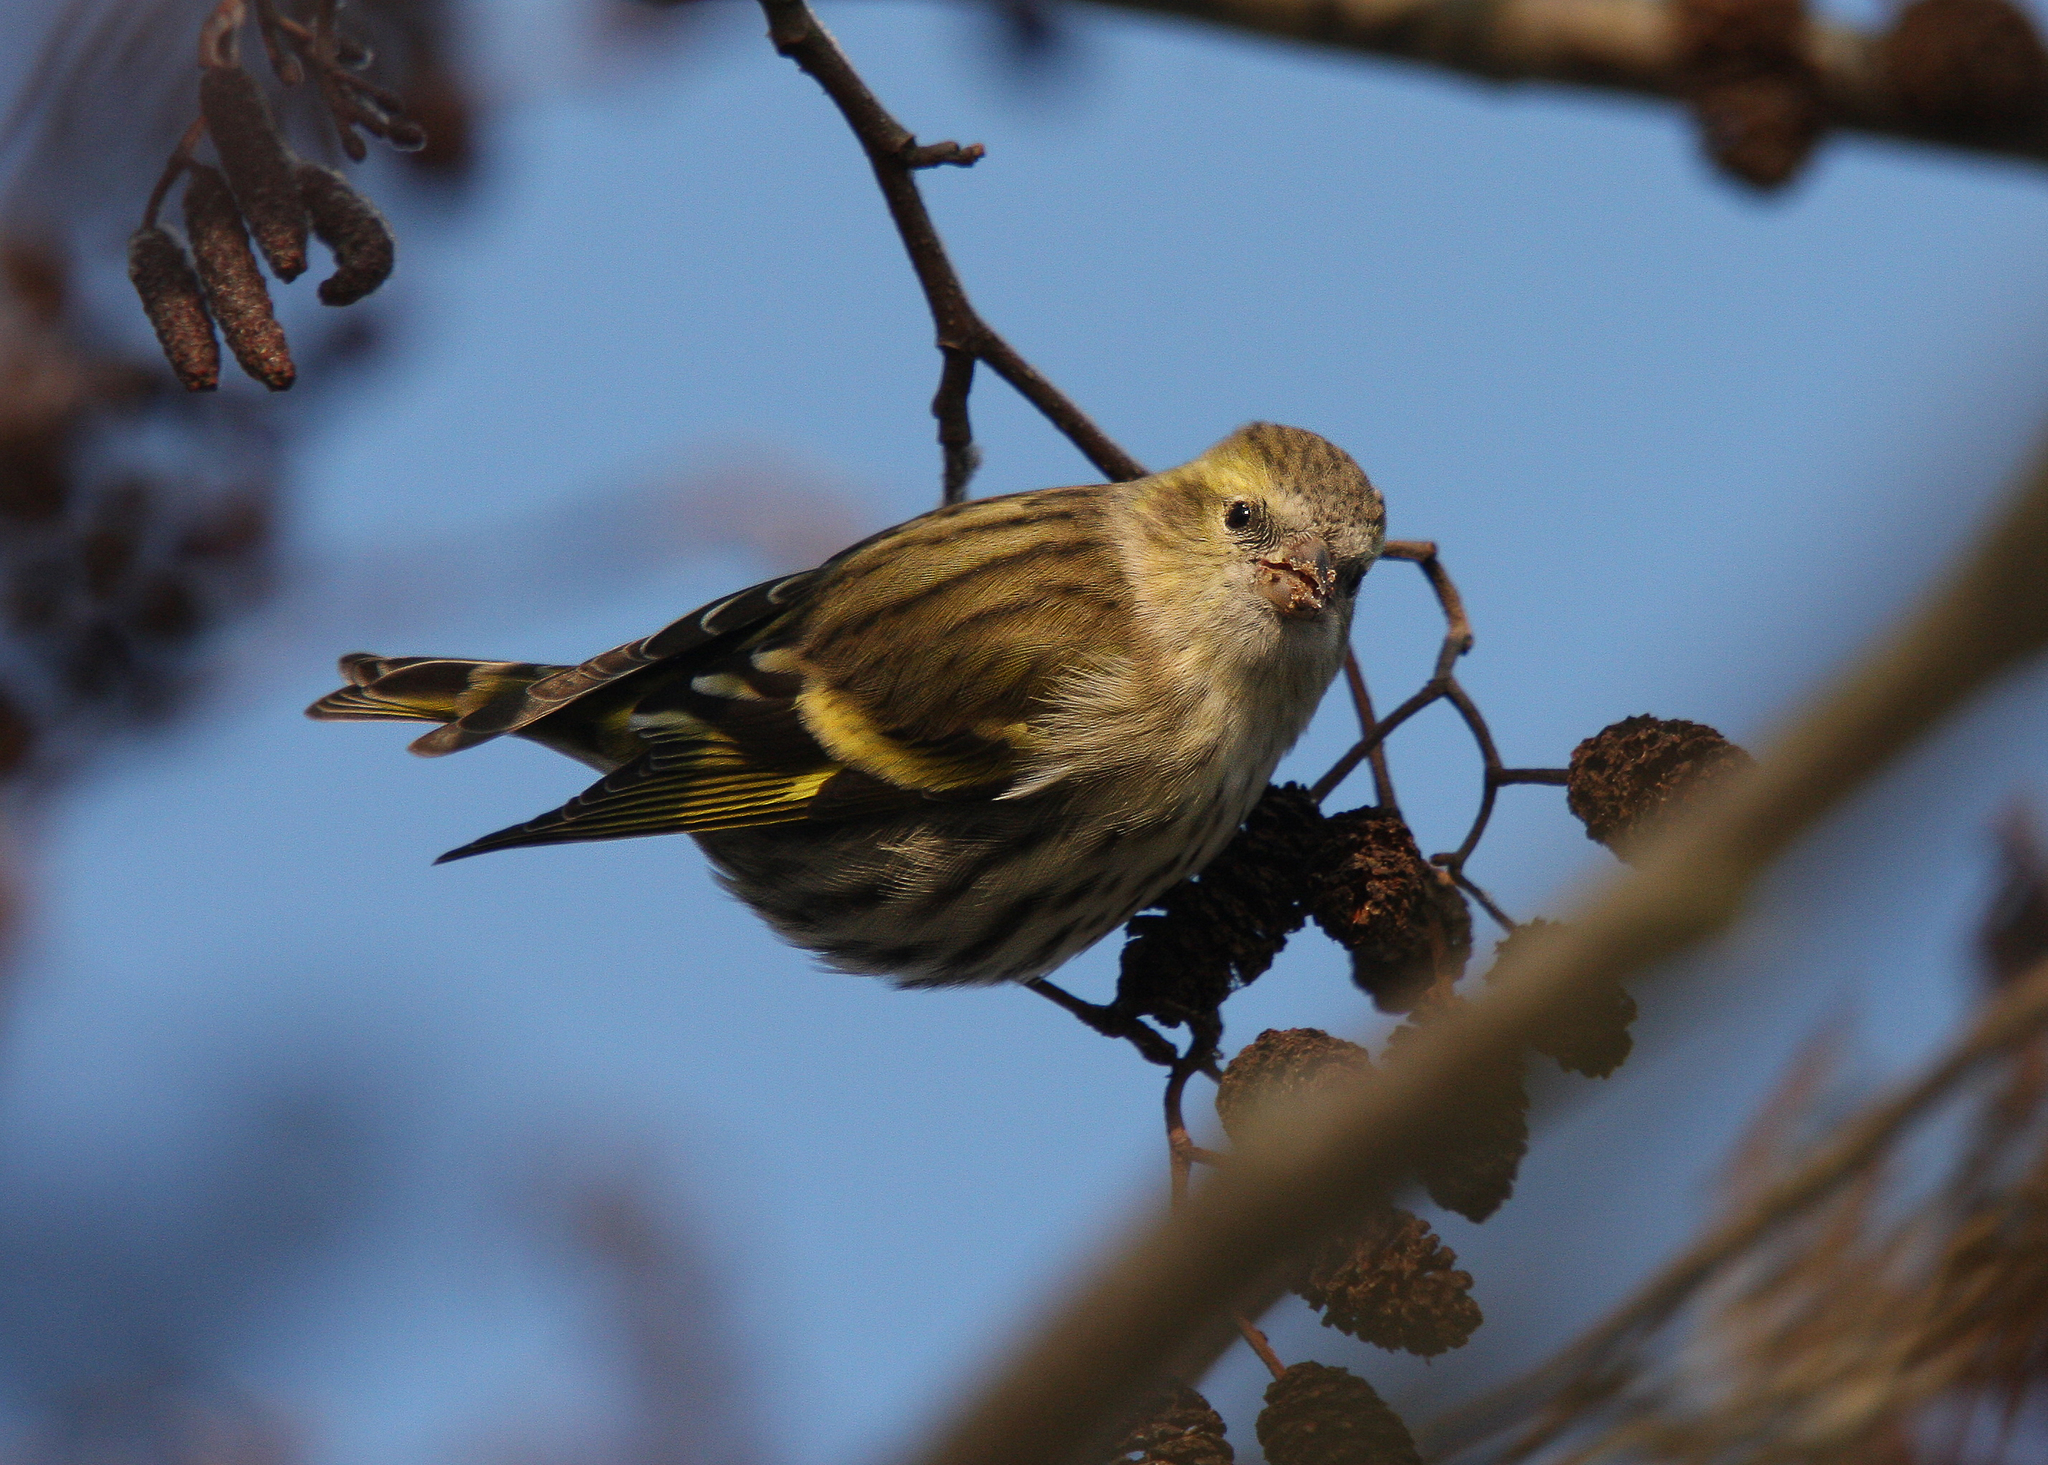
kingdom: Animalia
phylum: Chordata
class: Aves
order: Passeriformes
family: Fringillidae
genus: Spinus
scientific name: Spinus spinus
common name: Eurasian siskin
